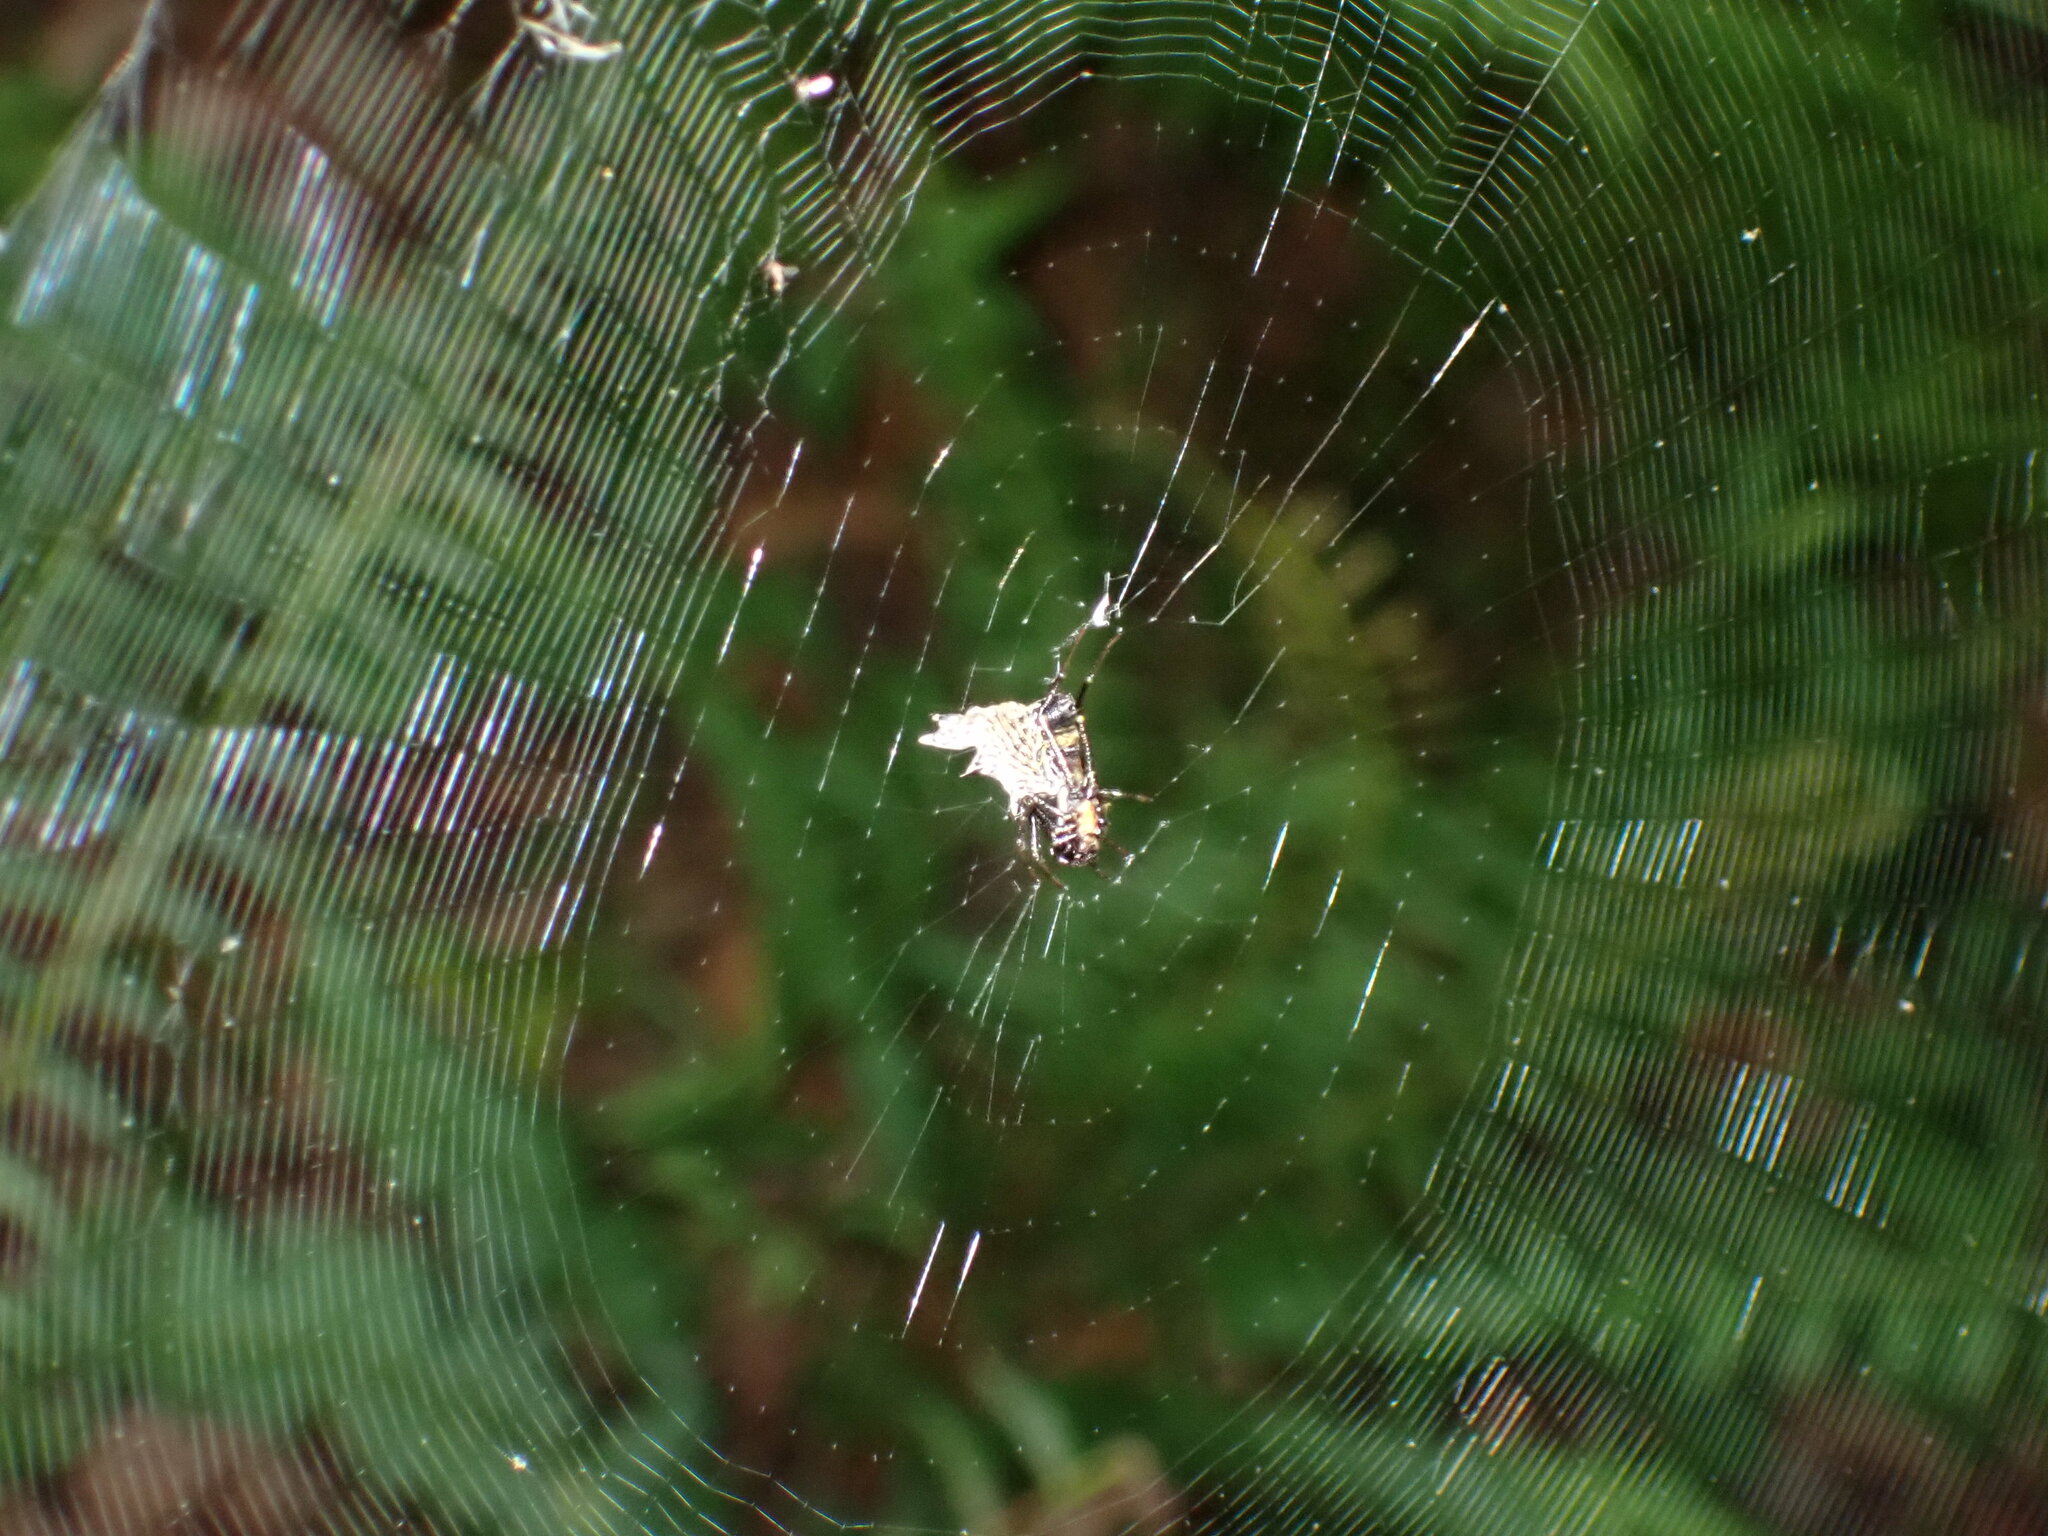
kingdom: Animalia
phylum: Arthropoda
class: Arachnida
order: Araneae
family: Araneidae
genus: Micrathena
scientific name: Micrathena gracilis
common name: Orb weavers
